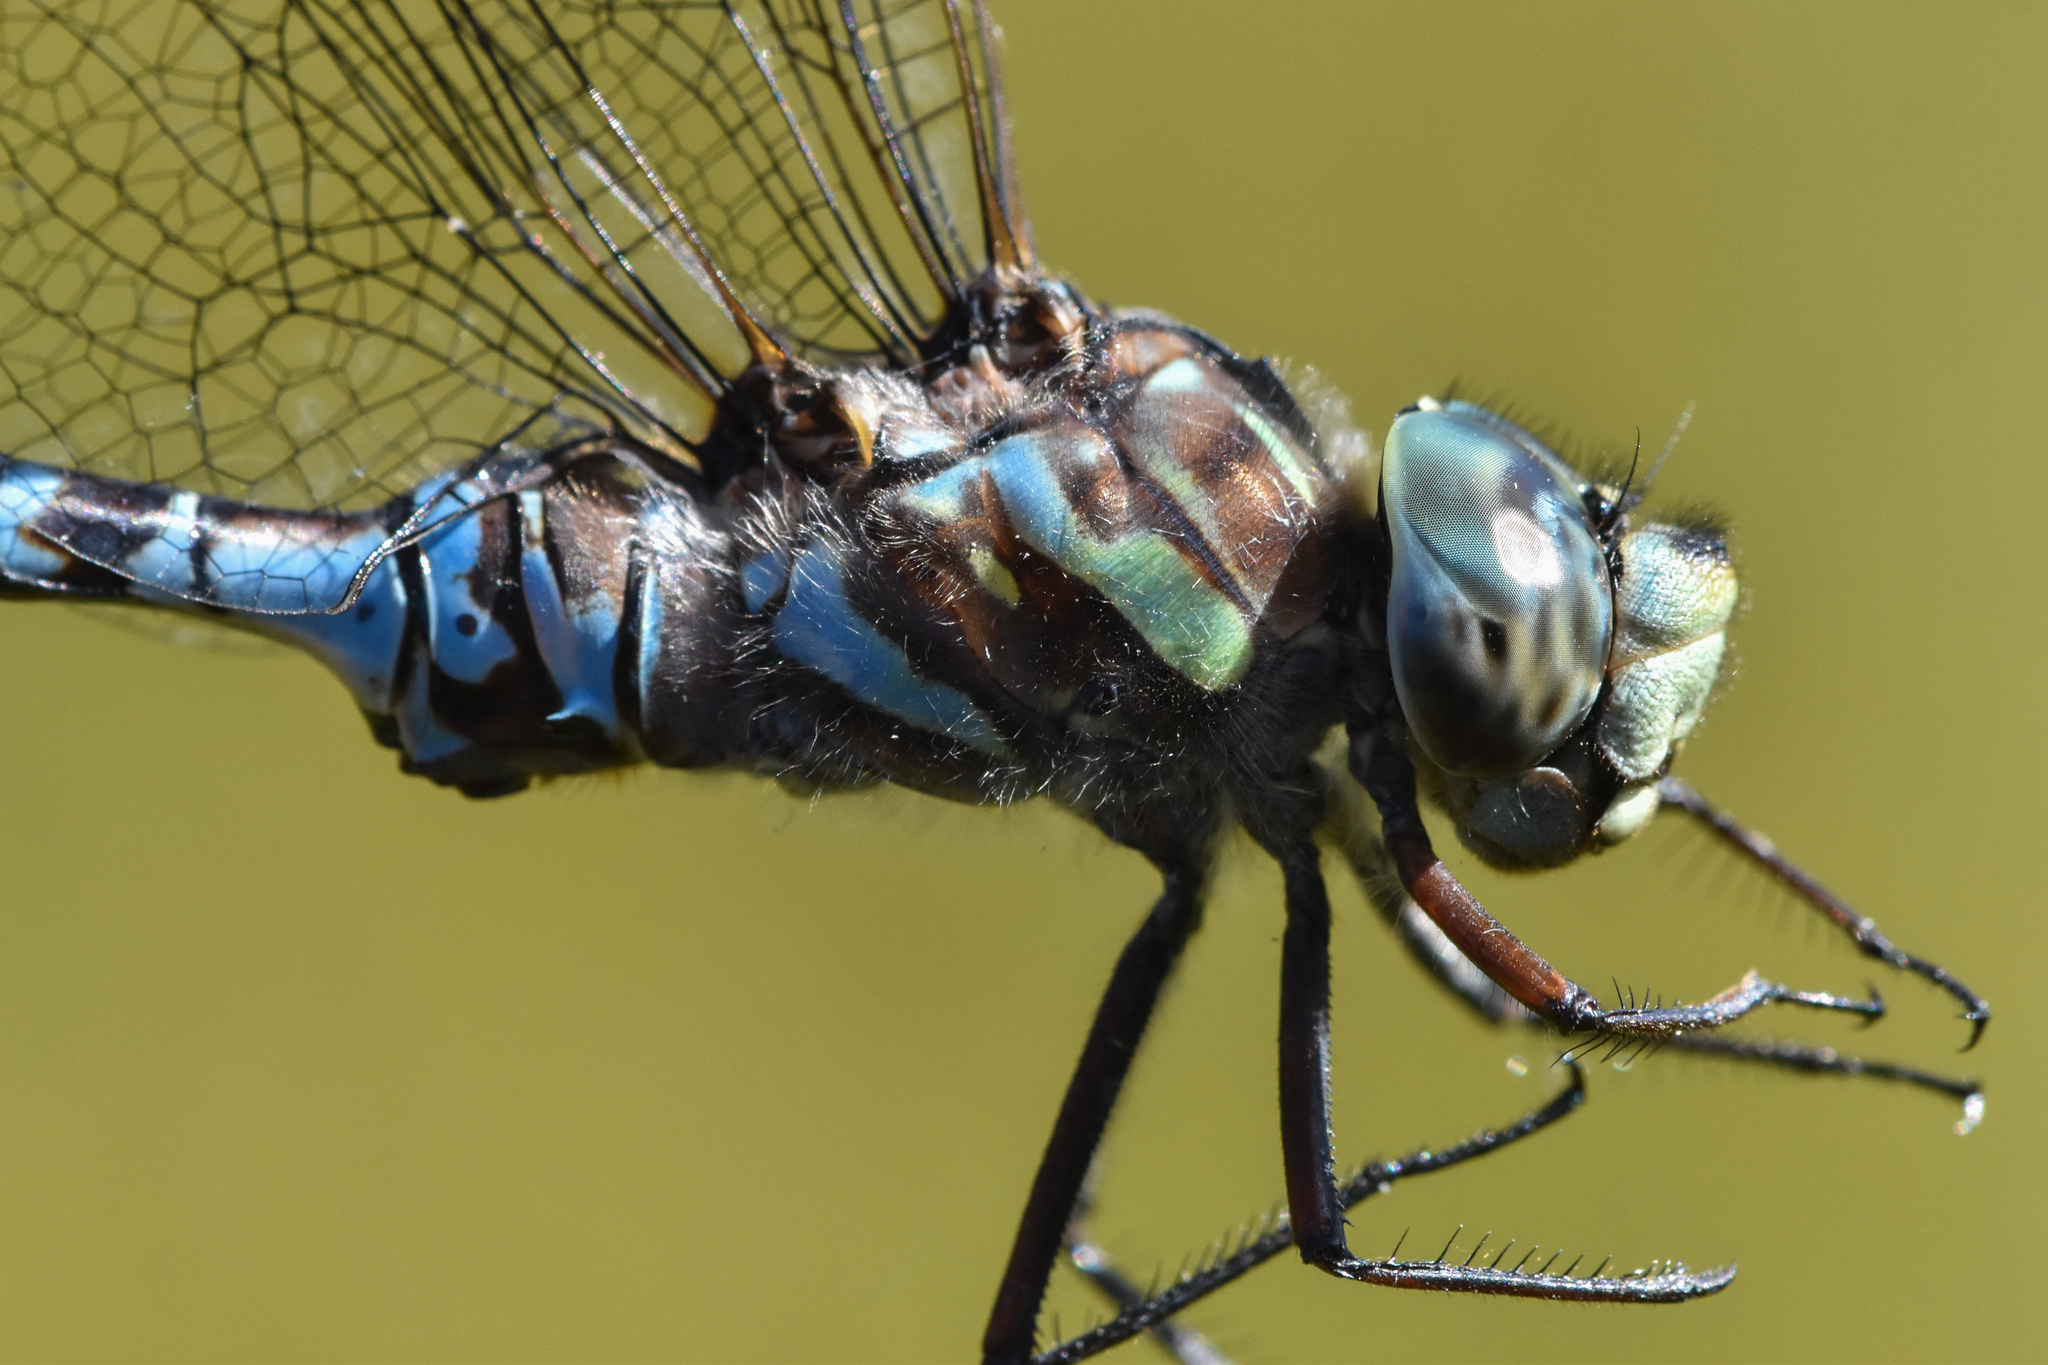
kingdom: Animalia
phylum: Arthropoda
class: Insecta
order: Odonata
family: Aeshnidae
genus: Aeshna
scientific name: Aeshna canadensis
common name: Canada darner
